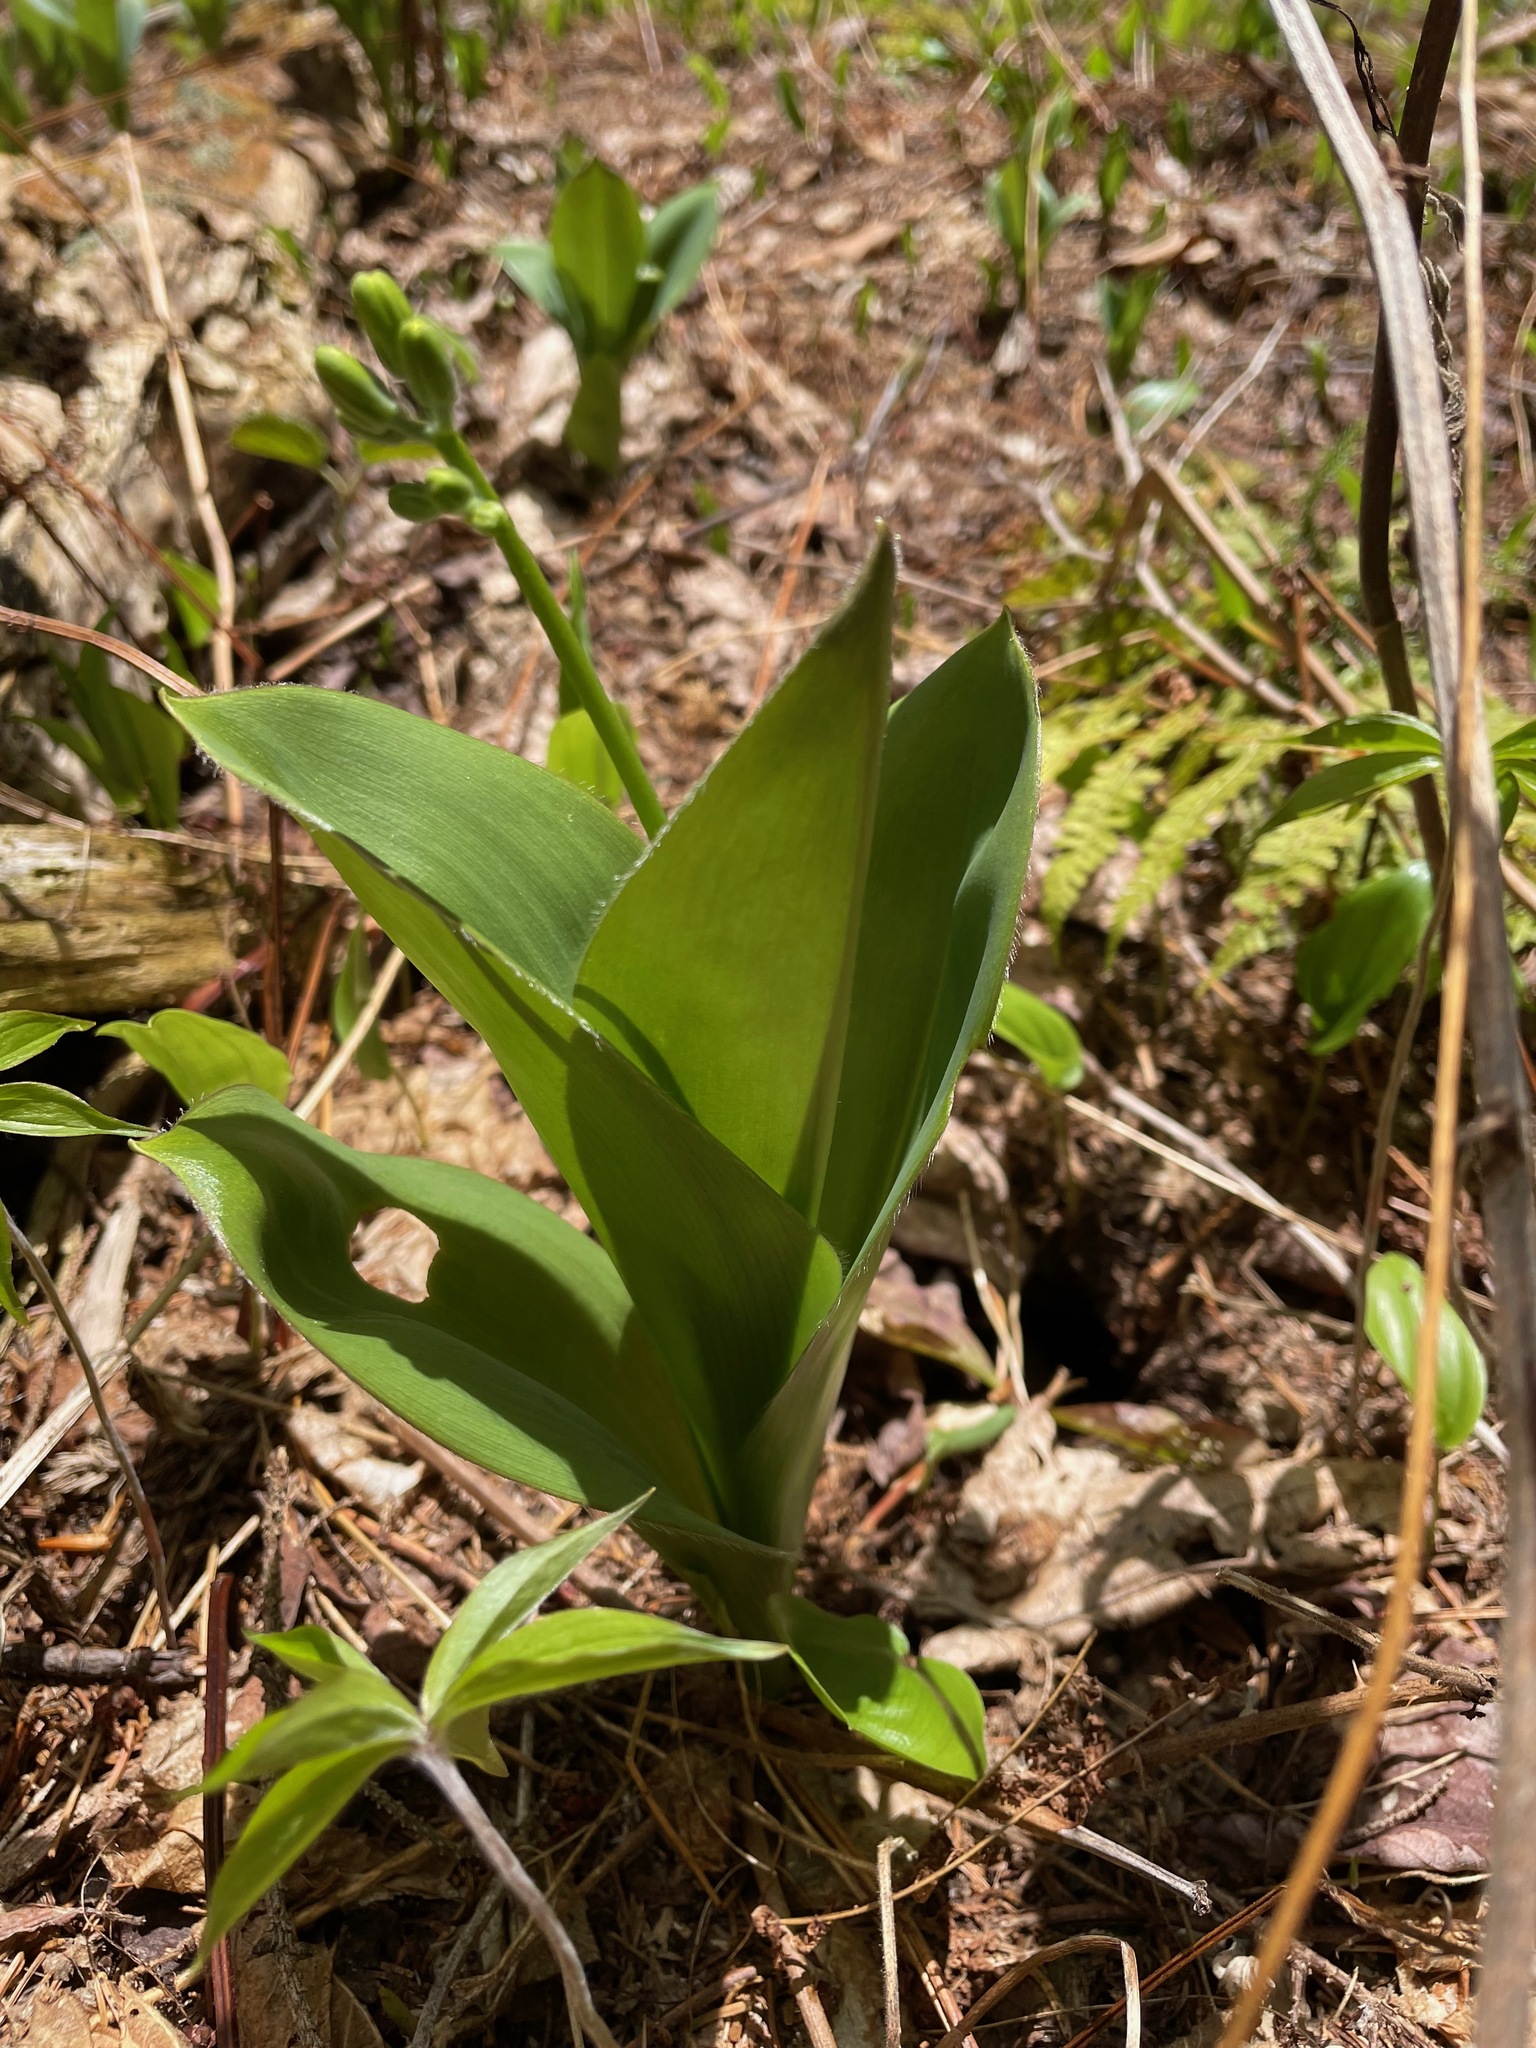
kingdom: Plantae
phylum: Tracheophyta
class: Liliopsida
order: Liliales
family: Liliaceae
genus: Clintonia
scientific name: Clintonia borealis
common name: Yellow clintonia
